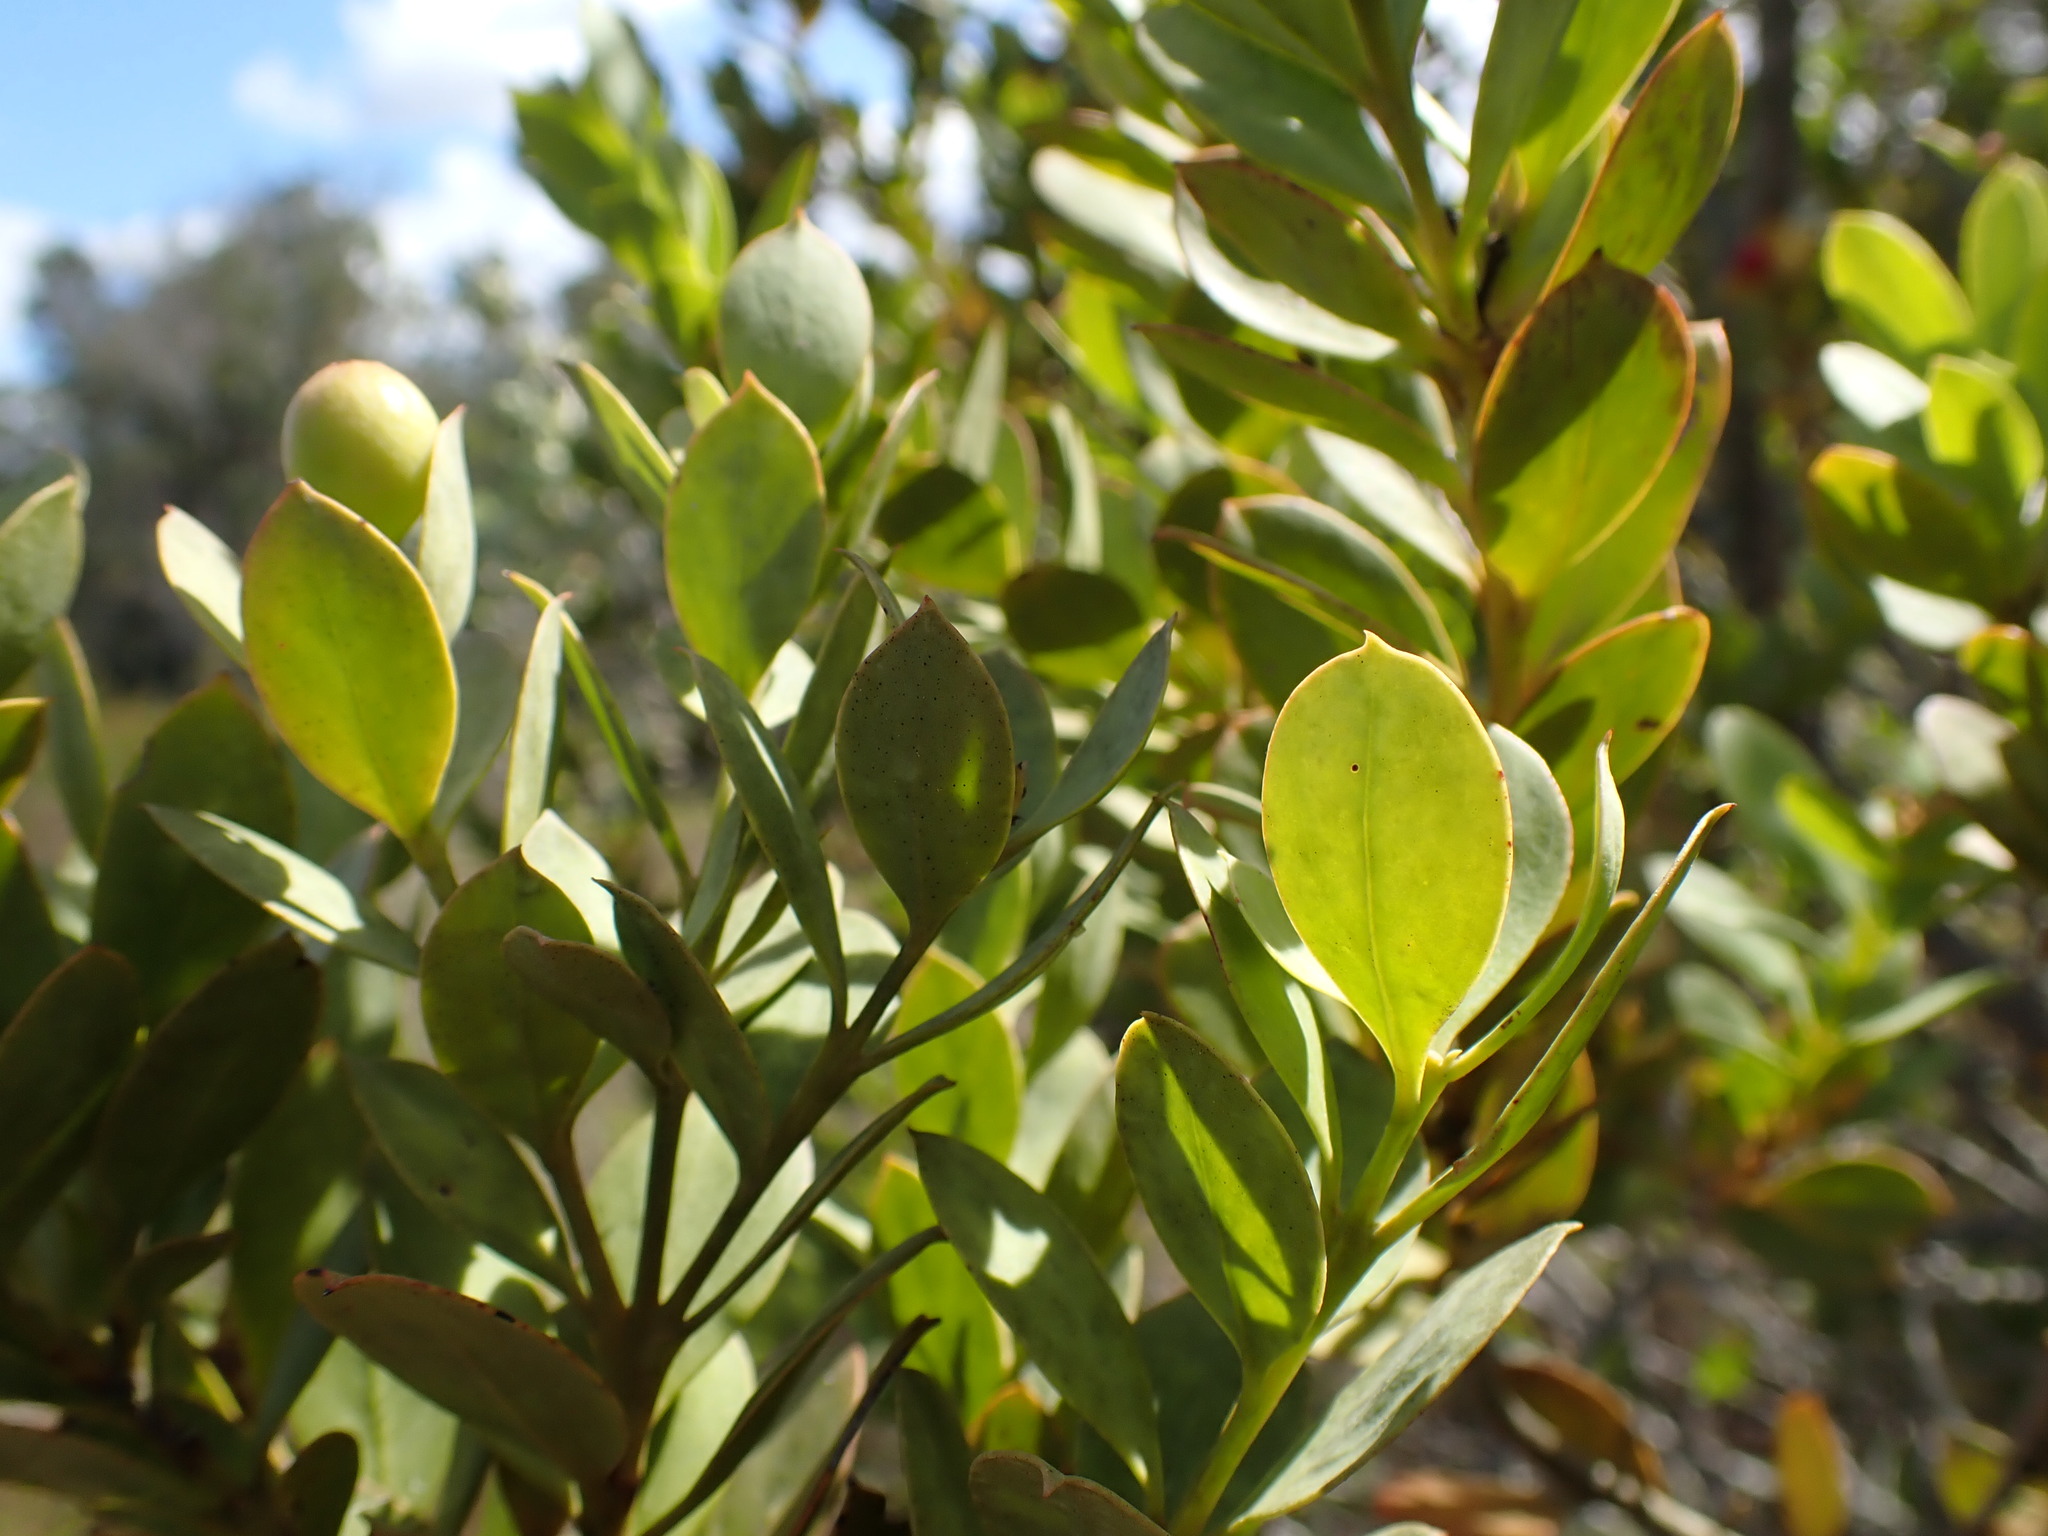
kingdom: Plantae
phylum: Tracheophyta
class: Magnoliopsida
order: Santalales
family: Santalaceae
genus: Osyris
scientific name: Osyris compressa
